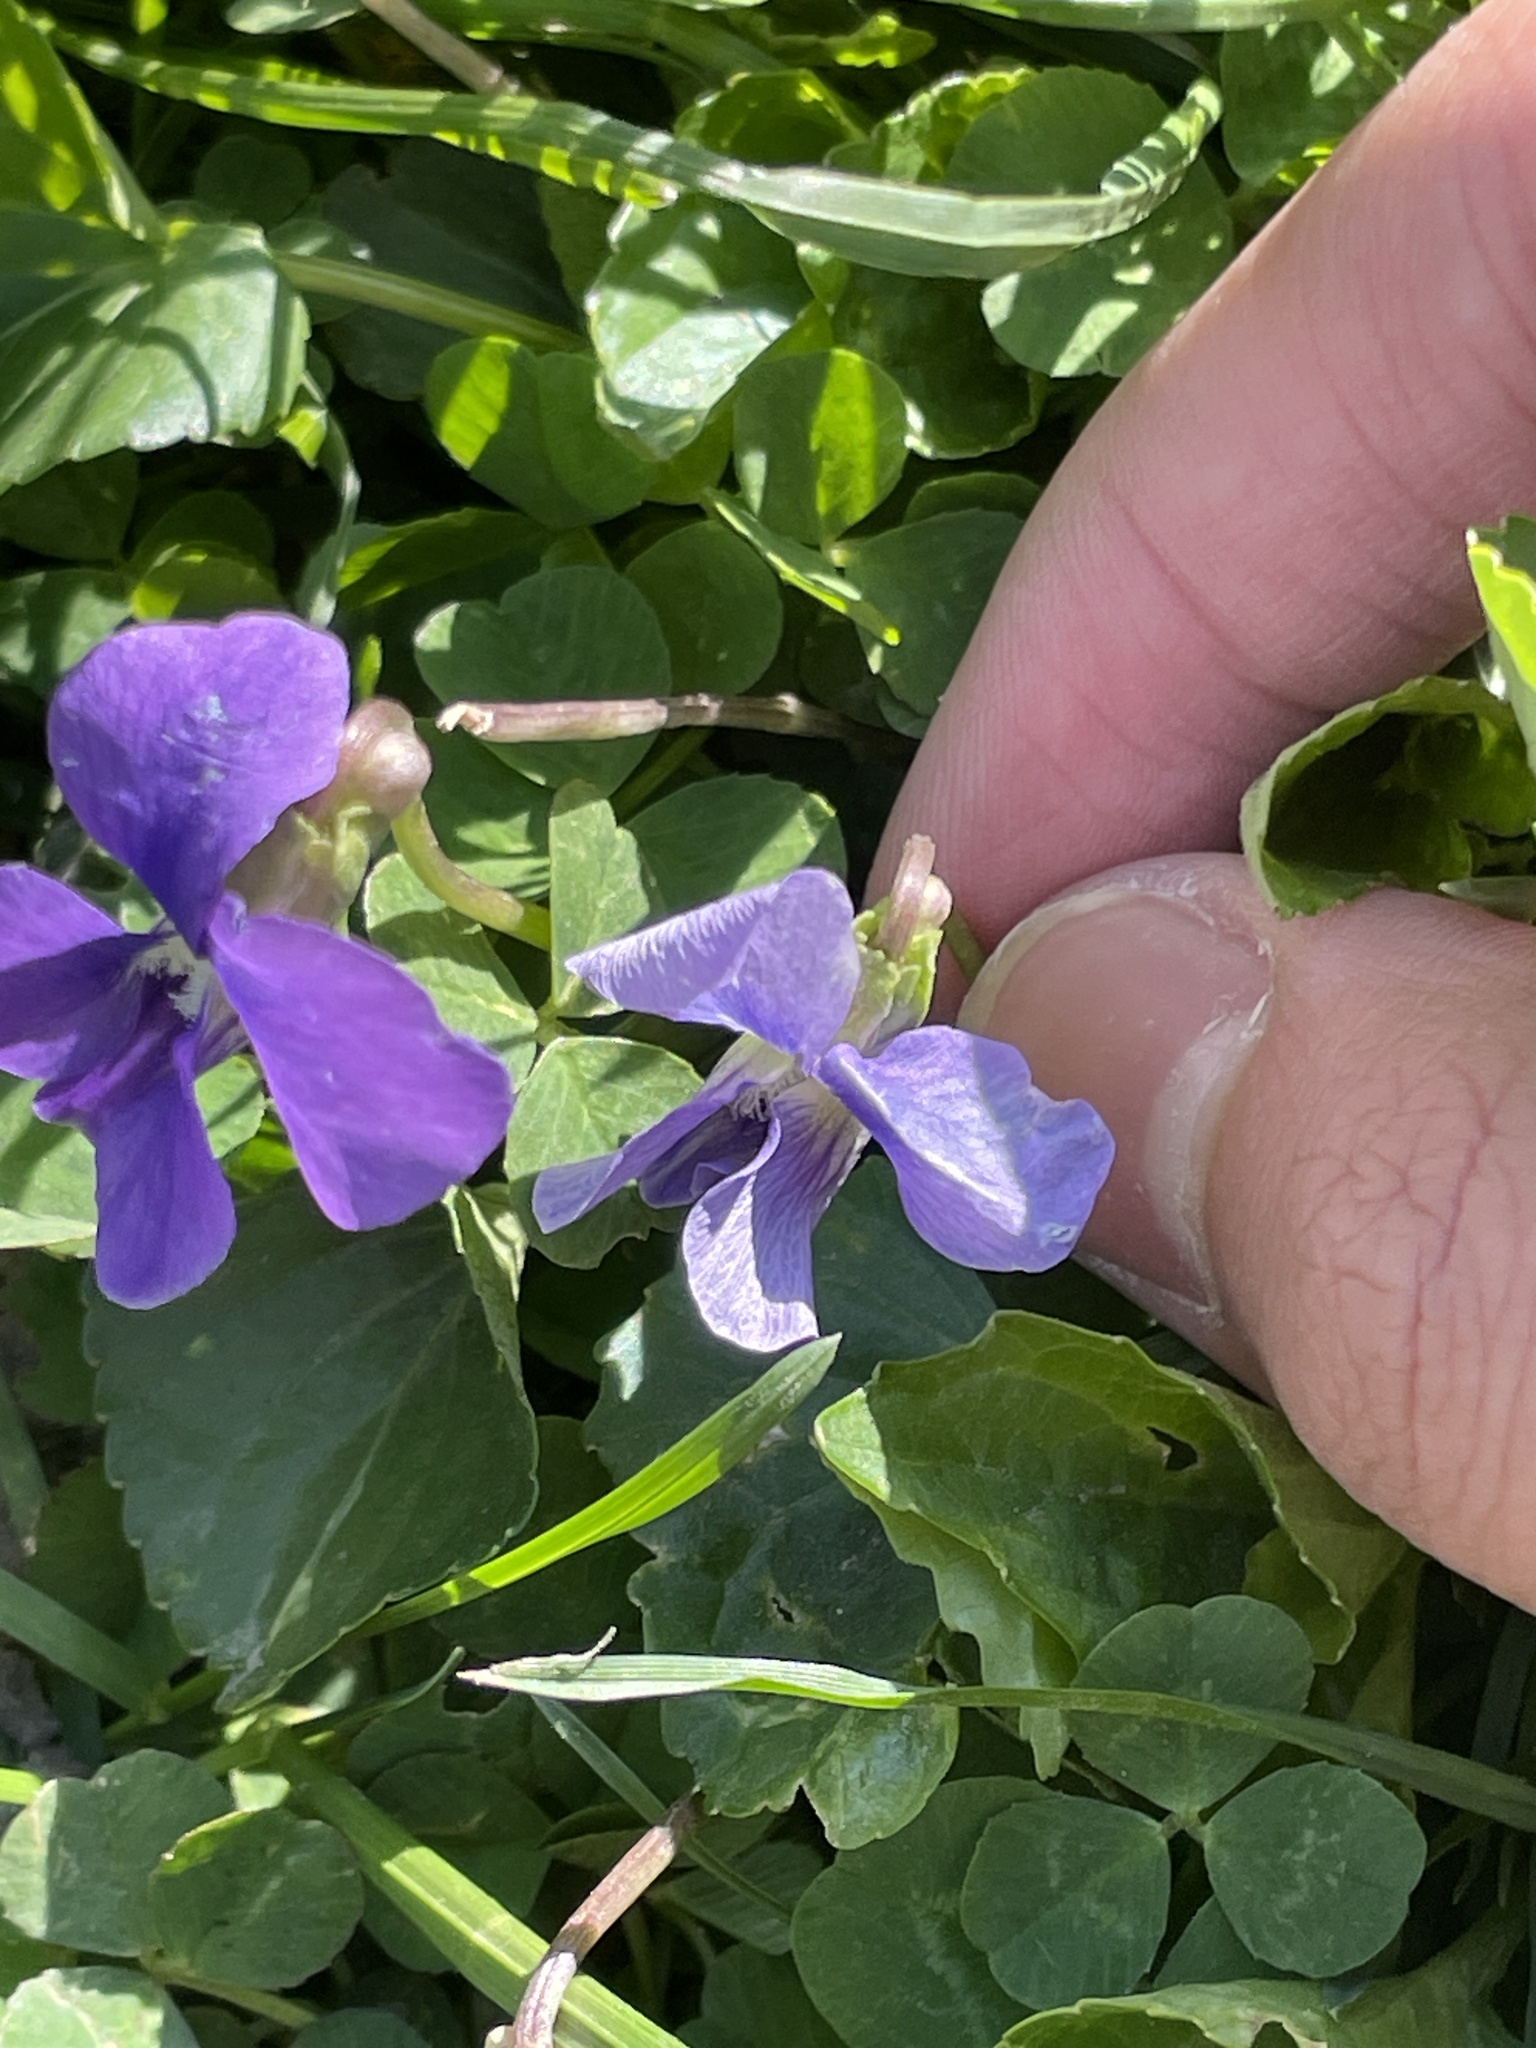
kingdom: Plantae
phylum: Tracheophyta
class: Magnoliopsida
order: Malpighiales
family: Violaceae
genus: Viola
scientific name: Viola sororia
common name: Dooryard violet
